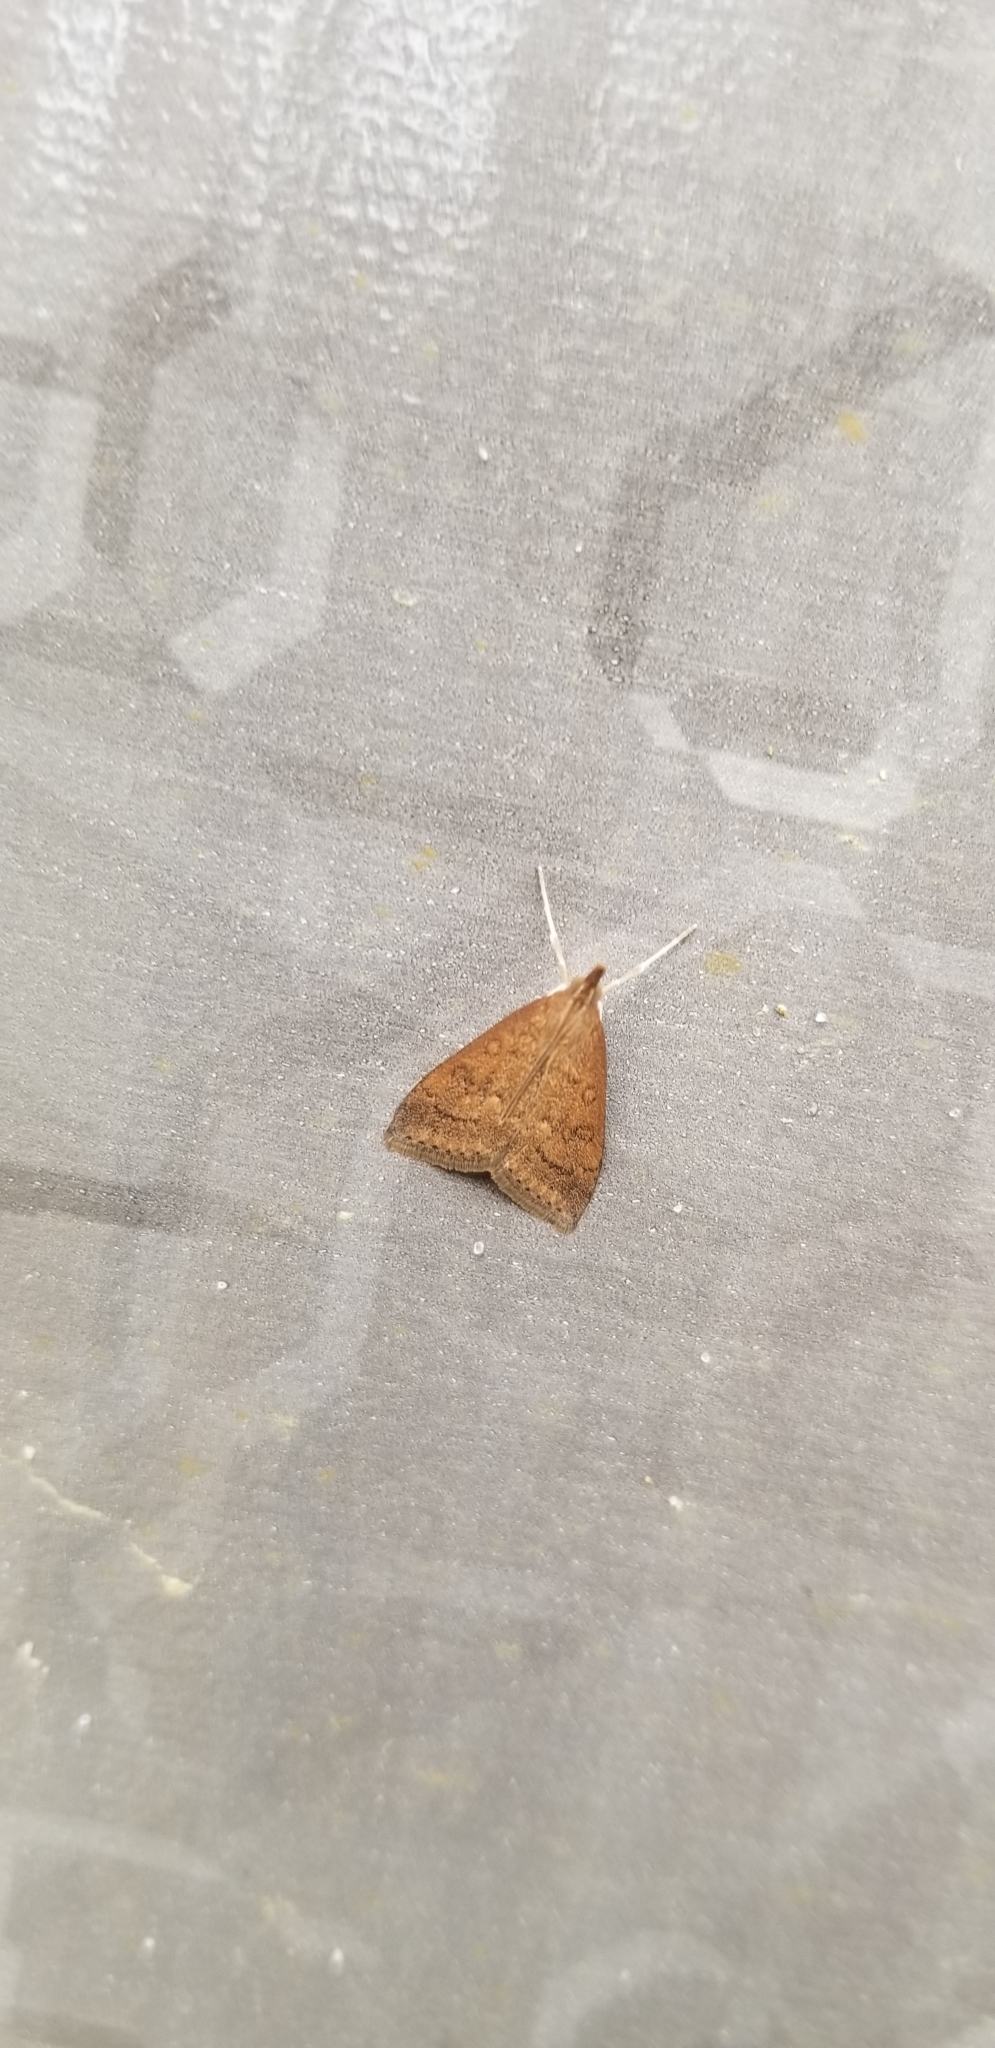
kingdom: Animalia
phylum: Arthropoda
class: Insecta
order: Lepidoptera
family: Crambidae
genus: Udea
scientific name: Udea rubigalis
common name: Celery leaftier moth
